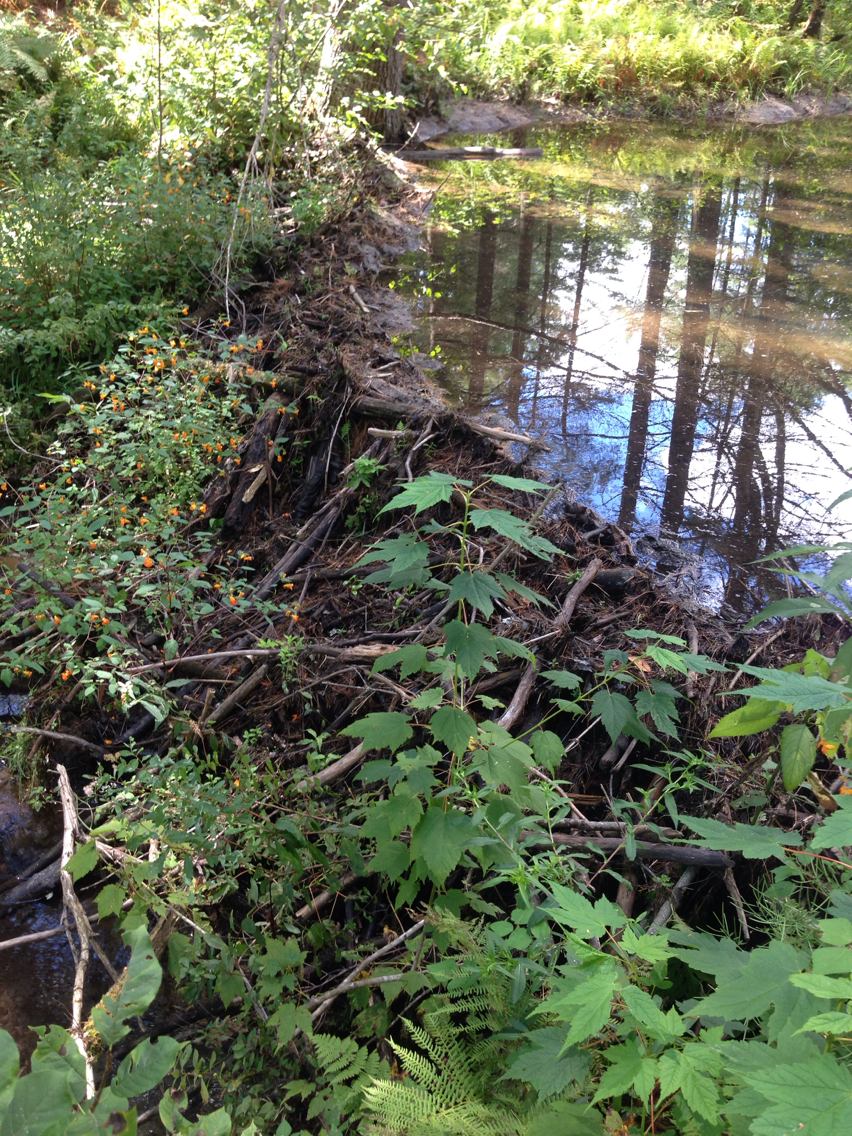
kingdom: Animalia
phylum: Chordata
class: Mammalia
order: Rodentia
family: Castoridae
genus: Castor
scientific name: Castor canadensis
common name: American beaver
